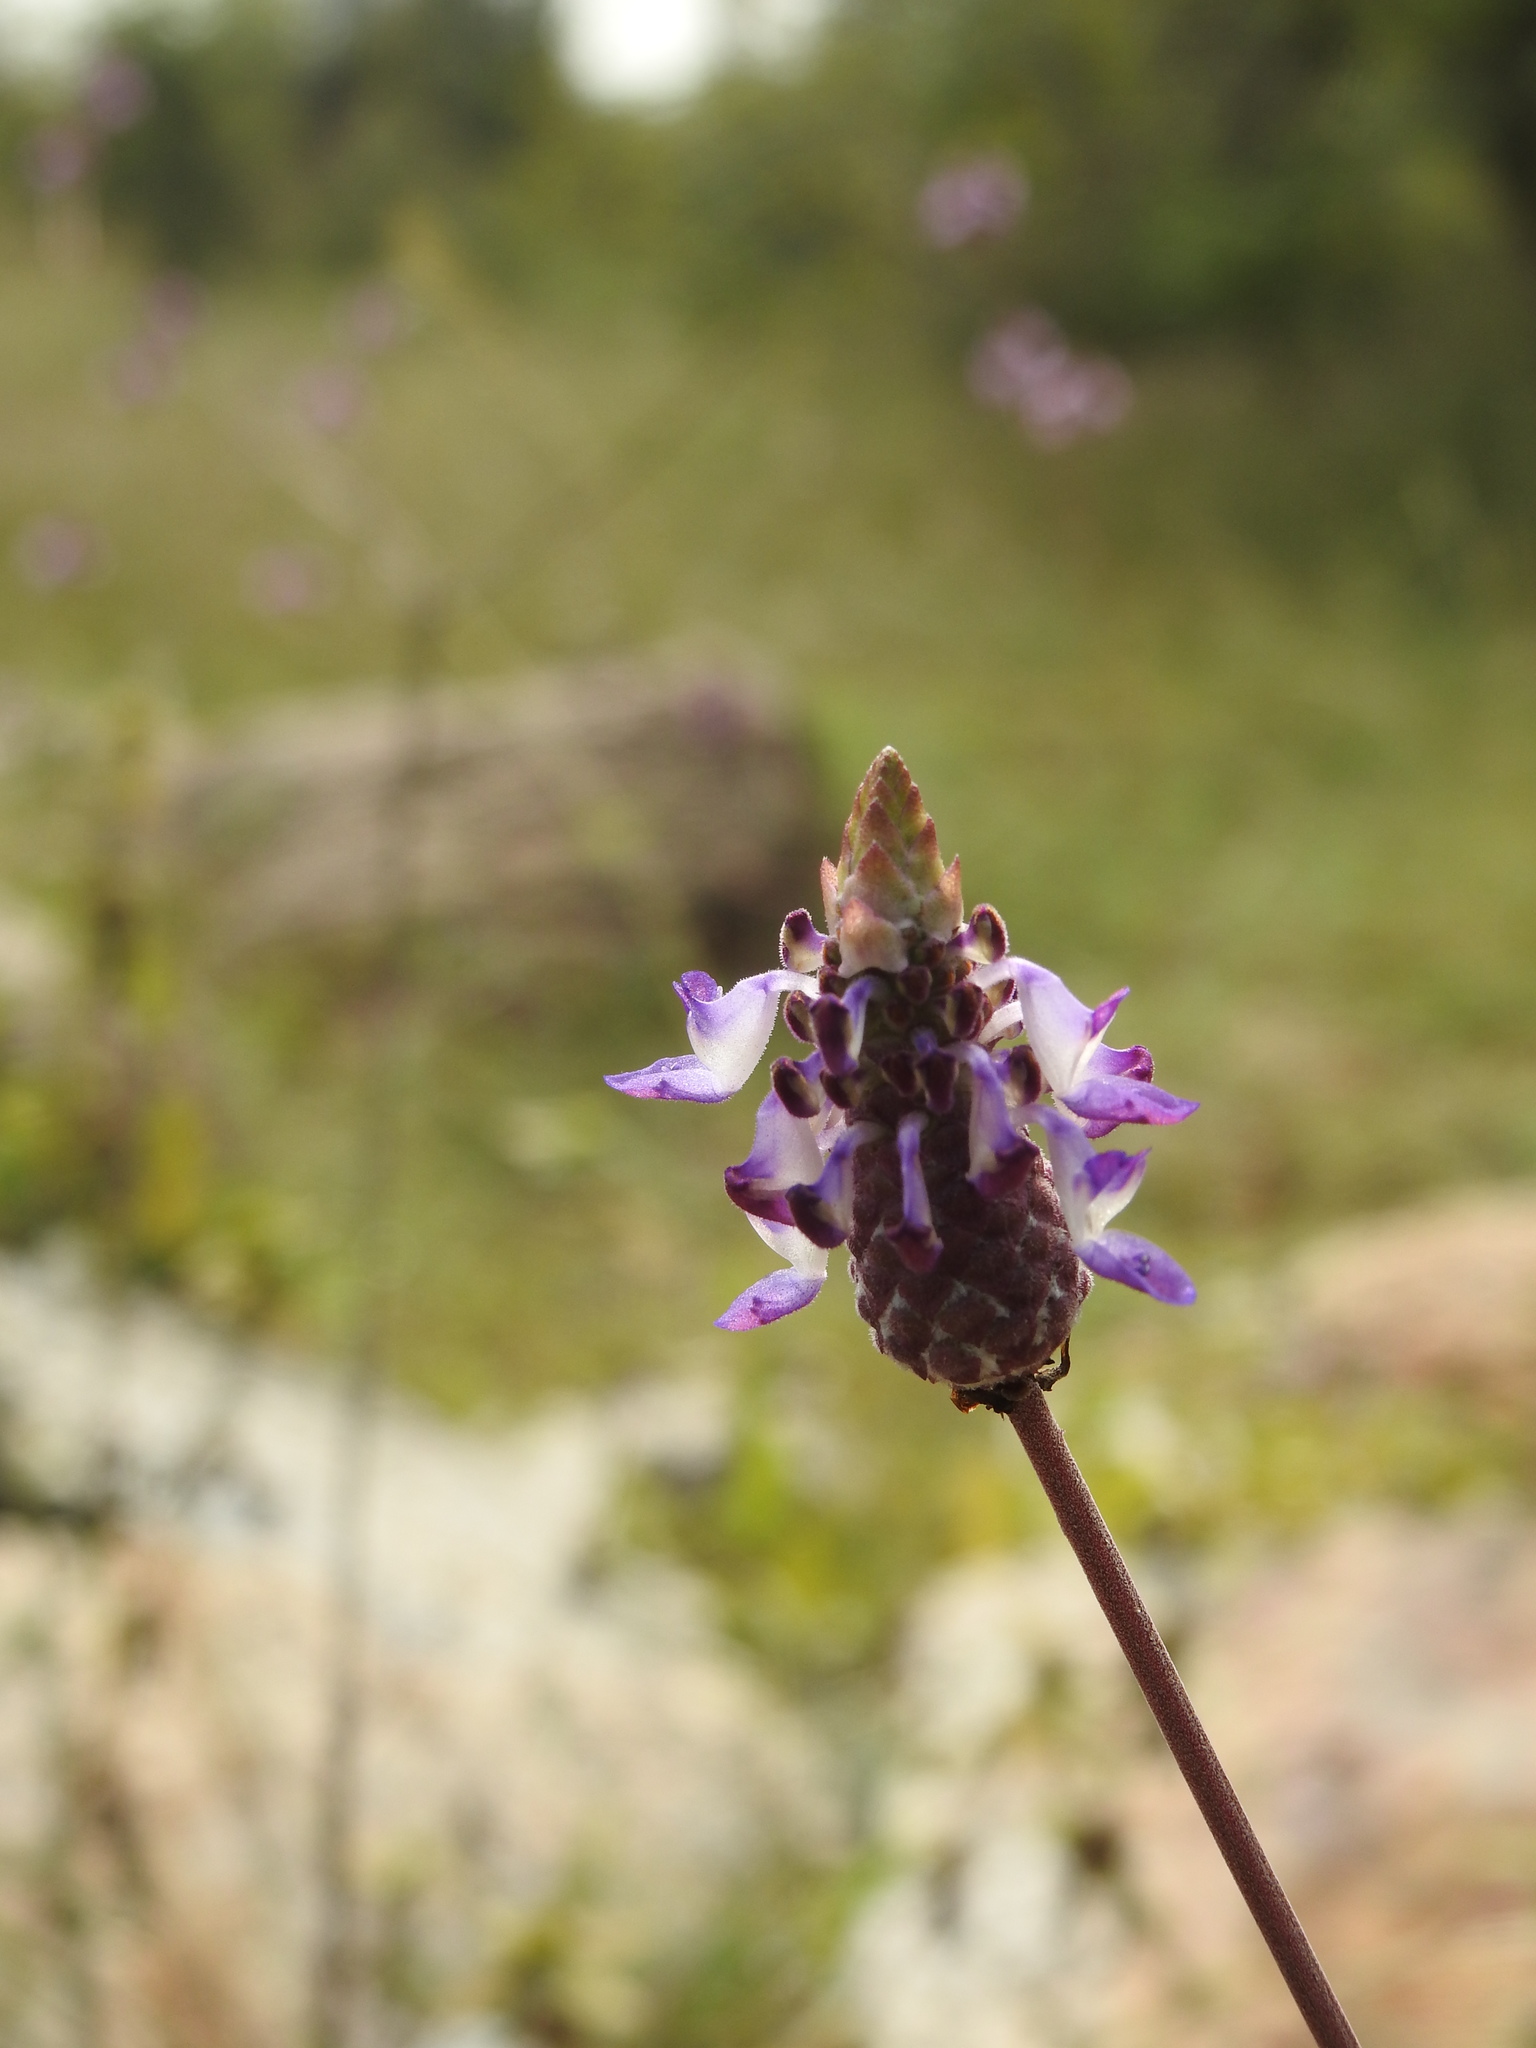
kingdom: Plantae
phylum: Tracheophyta
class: Magnoliopsida
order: Lamiales
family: Lamiaceae
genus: Coleus
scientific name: Coleus strobilifer
